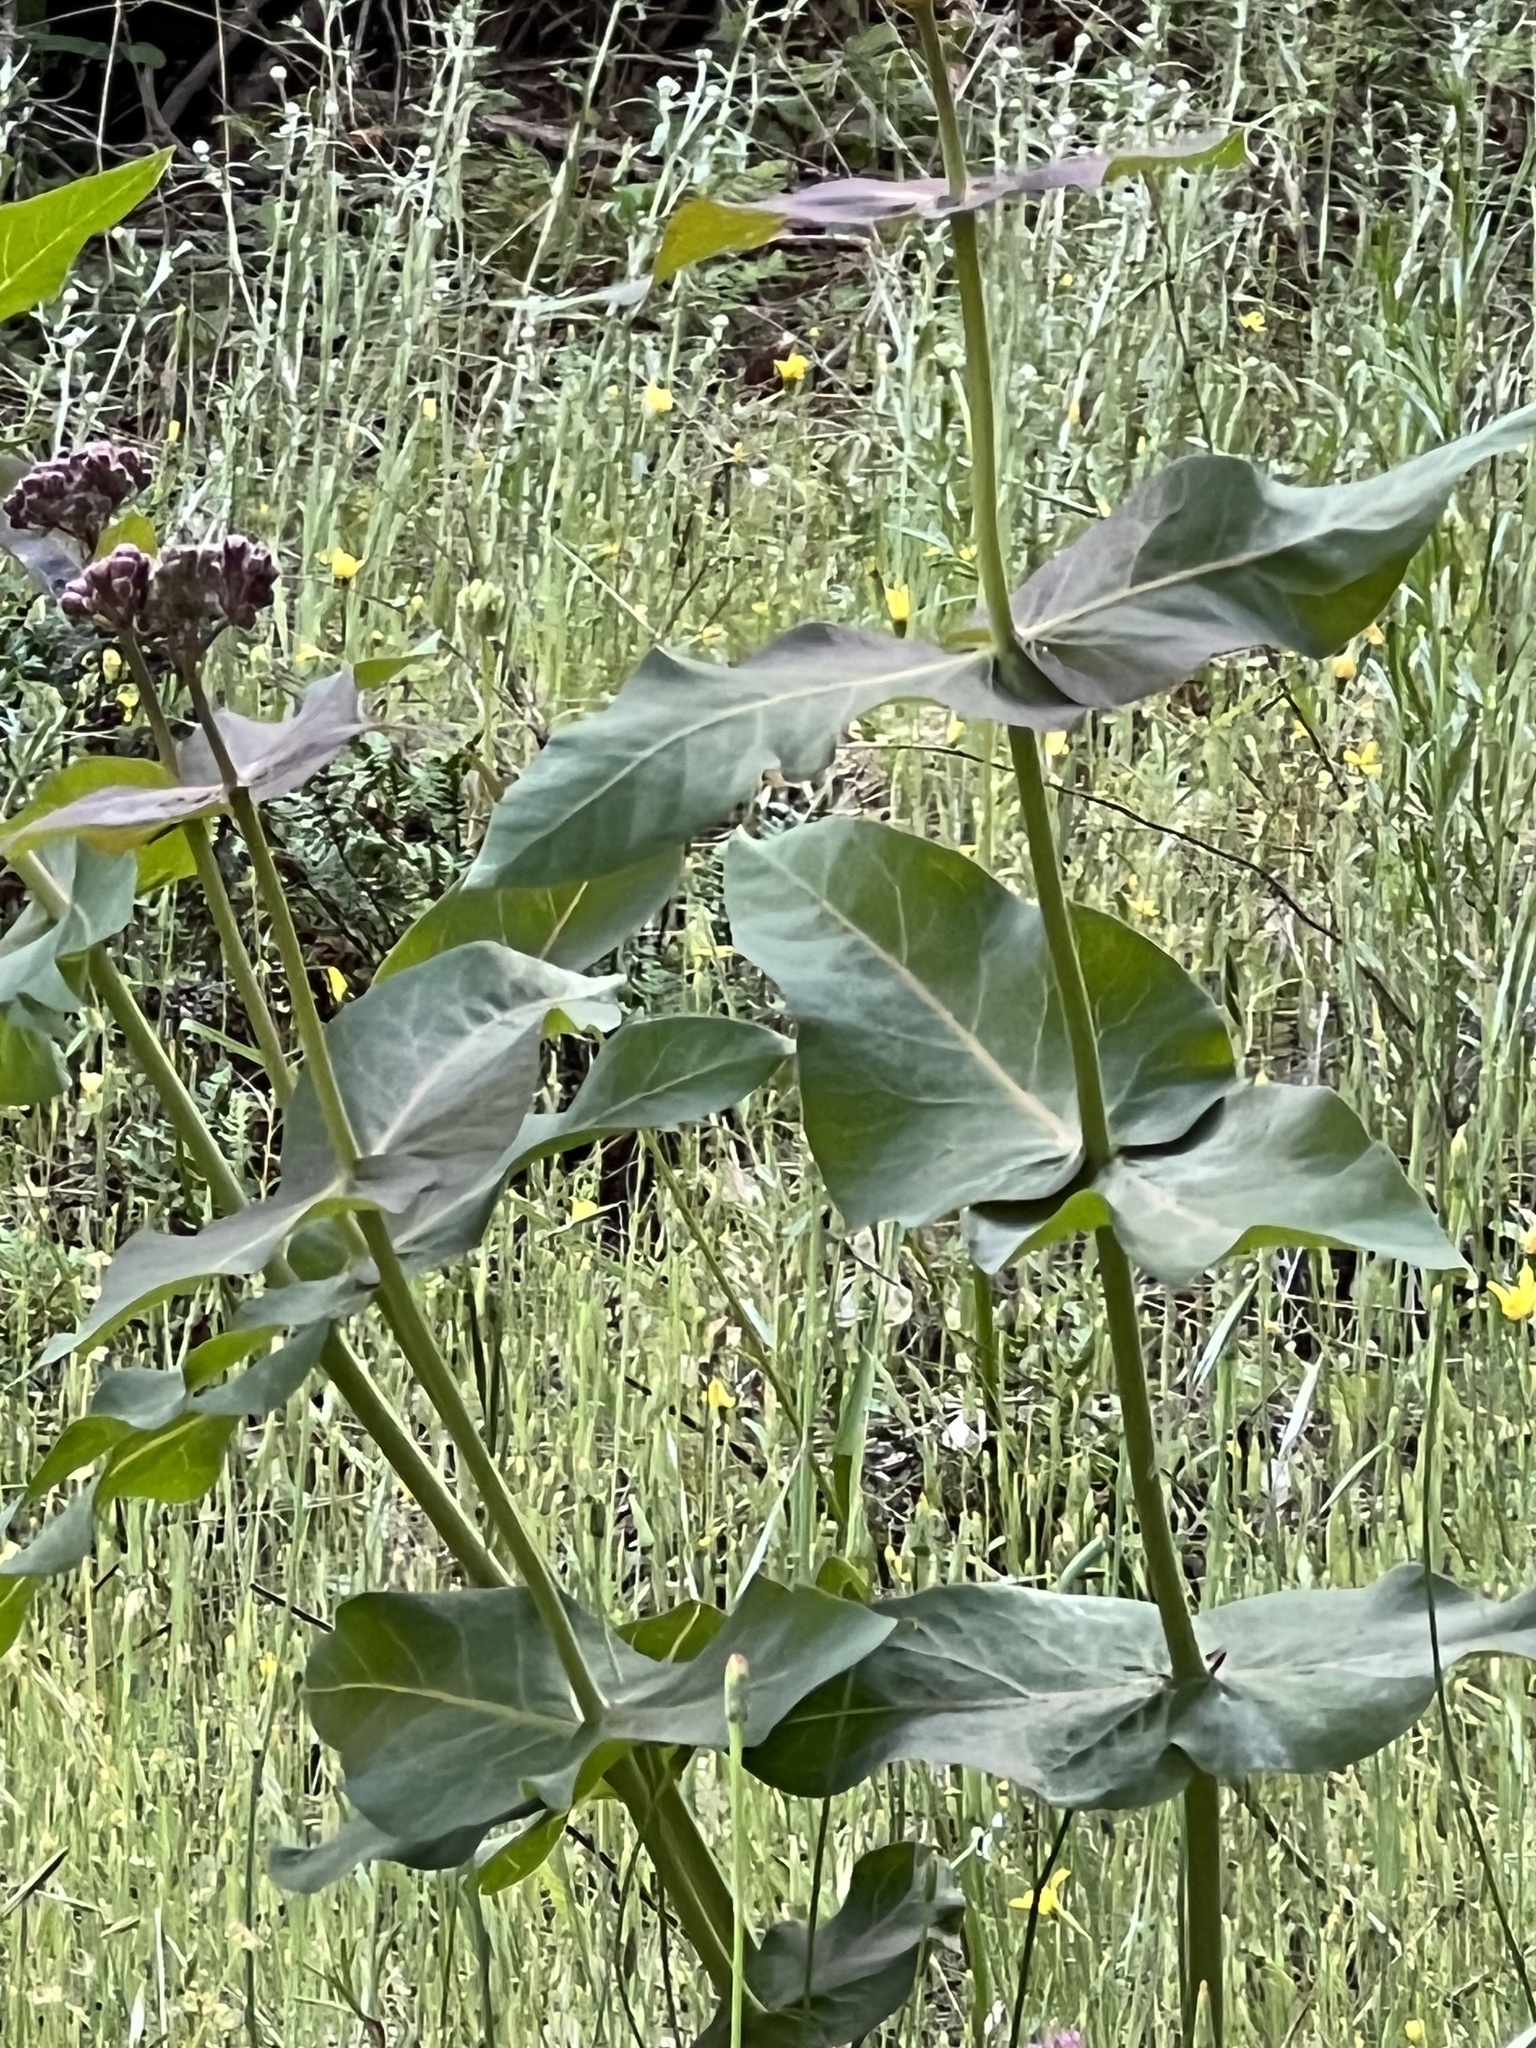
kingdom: Plantae
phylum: Tracheophyta
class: Magnoliopsida
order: Gentianales
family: Apocynaceae
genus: Asclepias
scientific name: Asclepias cordifolia
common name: Purple milkweed
